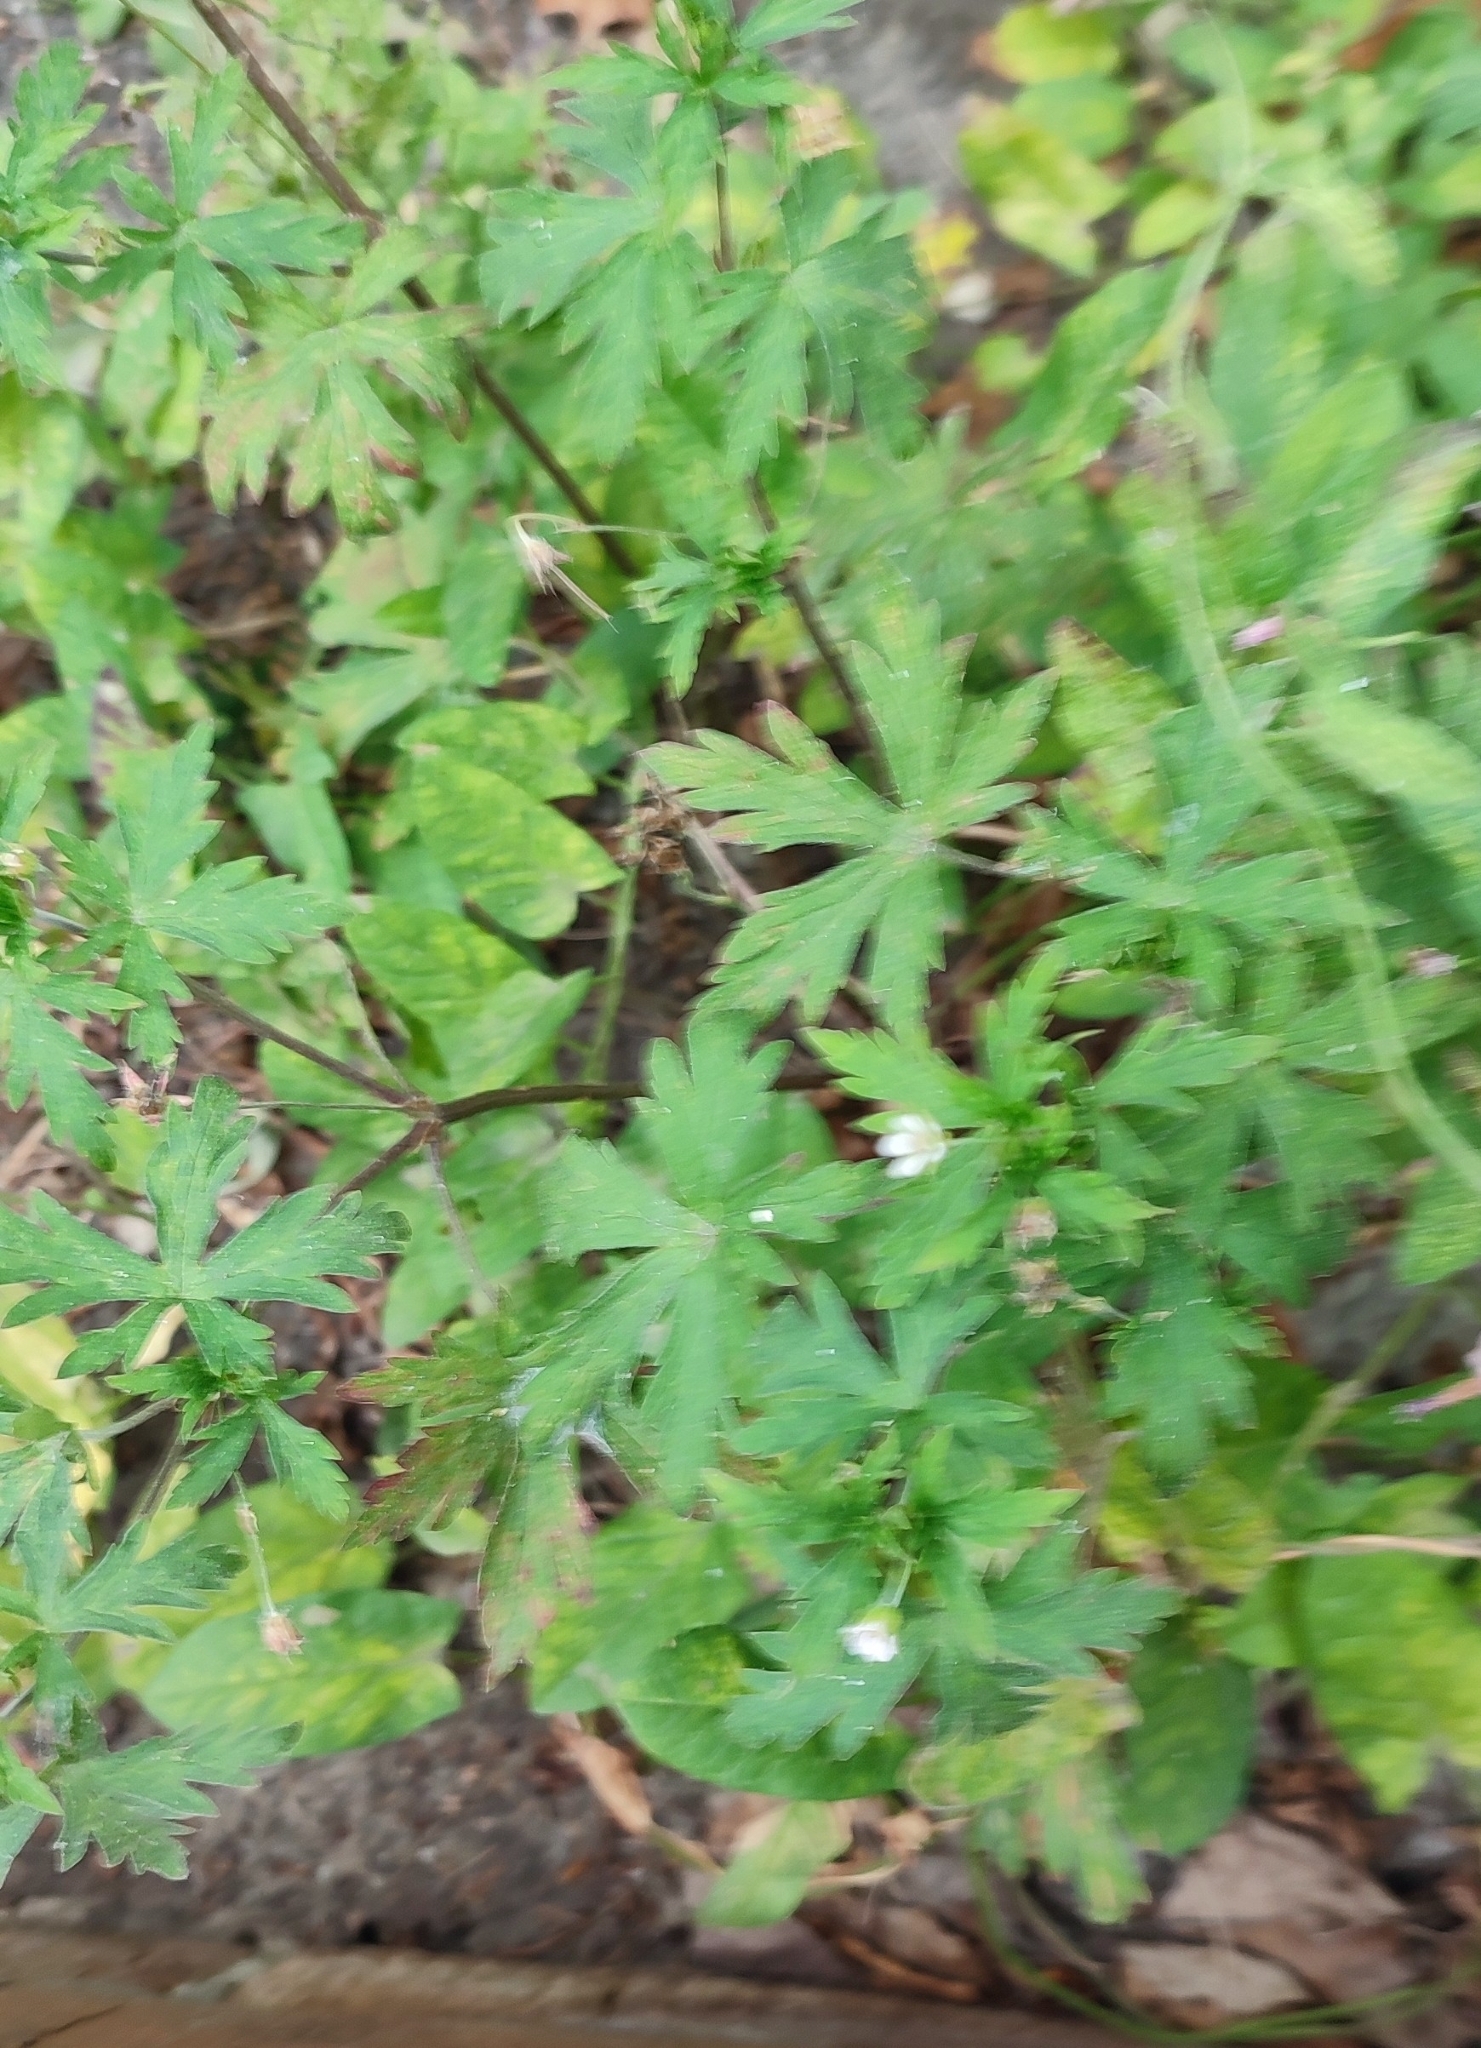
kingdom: Plantae
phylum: Tracheophyta
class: Magnoliopsida
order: Geraniales
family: Geraniaceae
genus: Geranium
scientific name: Geranium sibiricum
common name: Siberian crane's-bill
